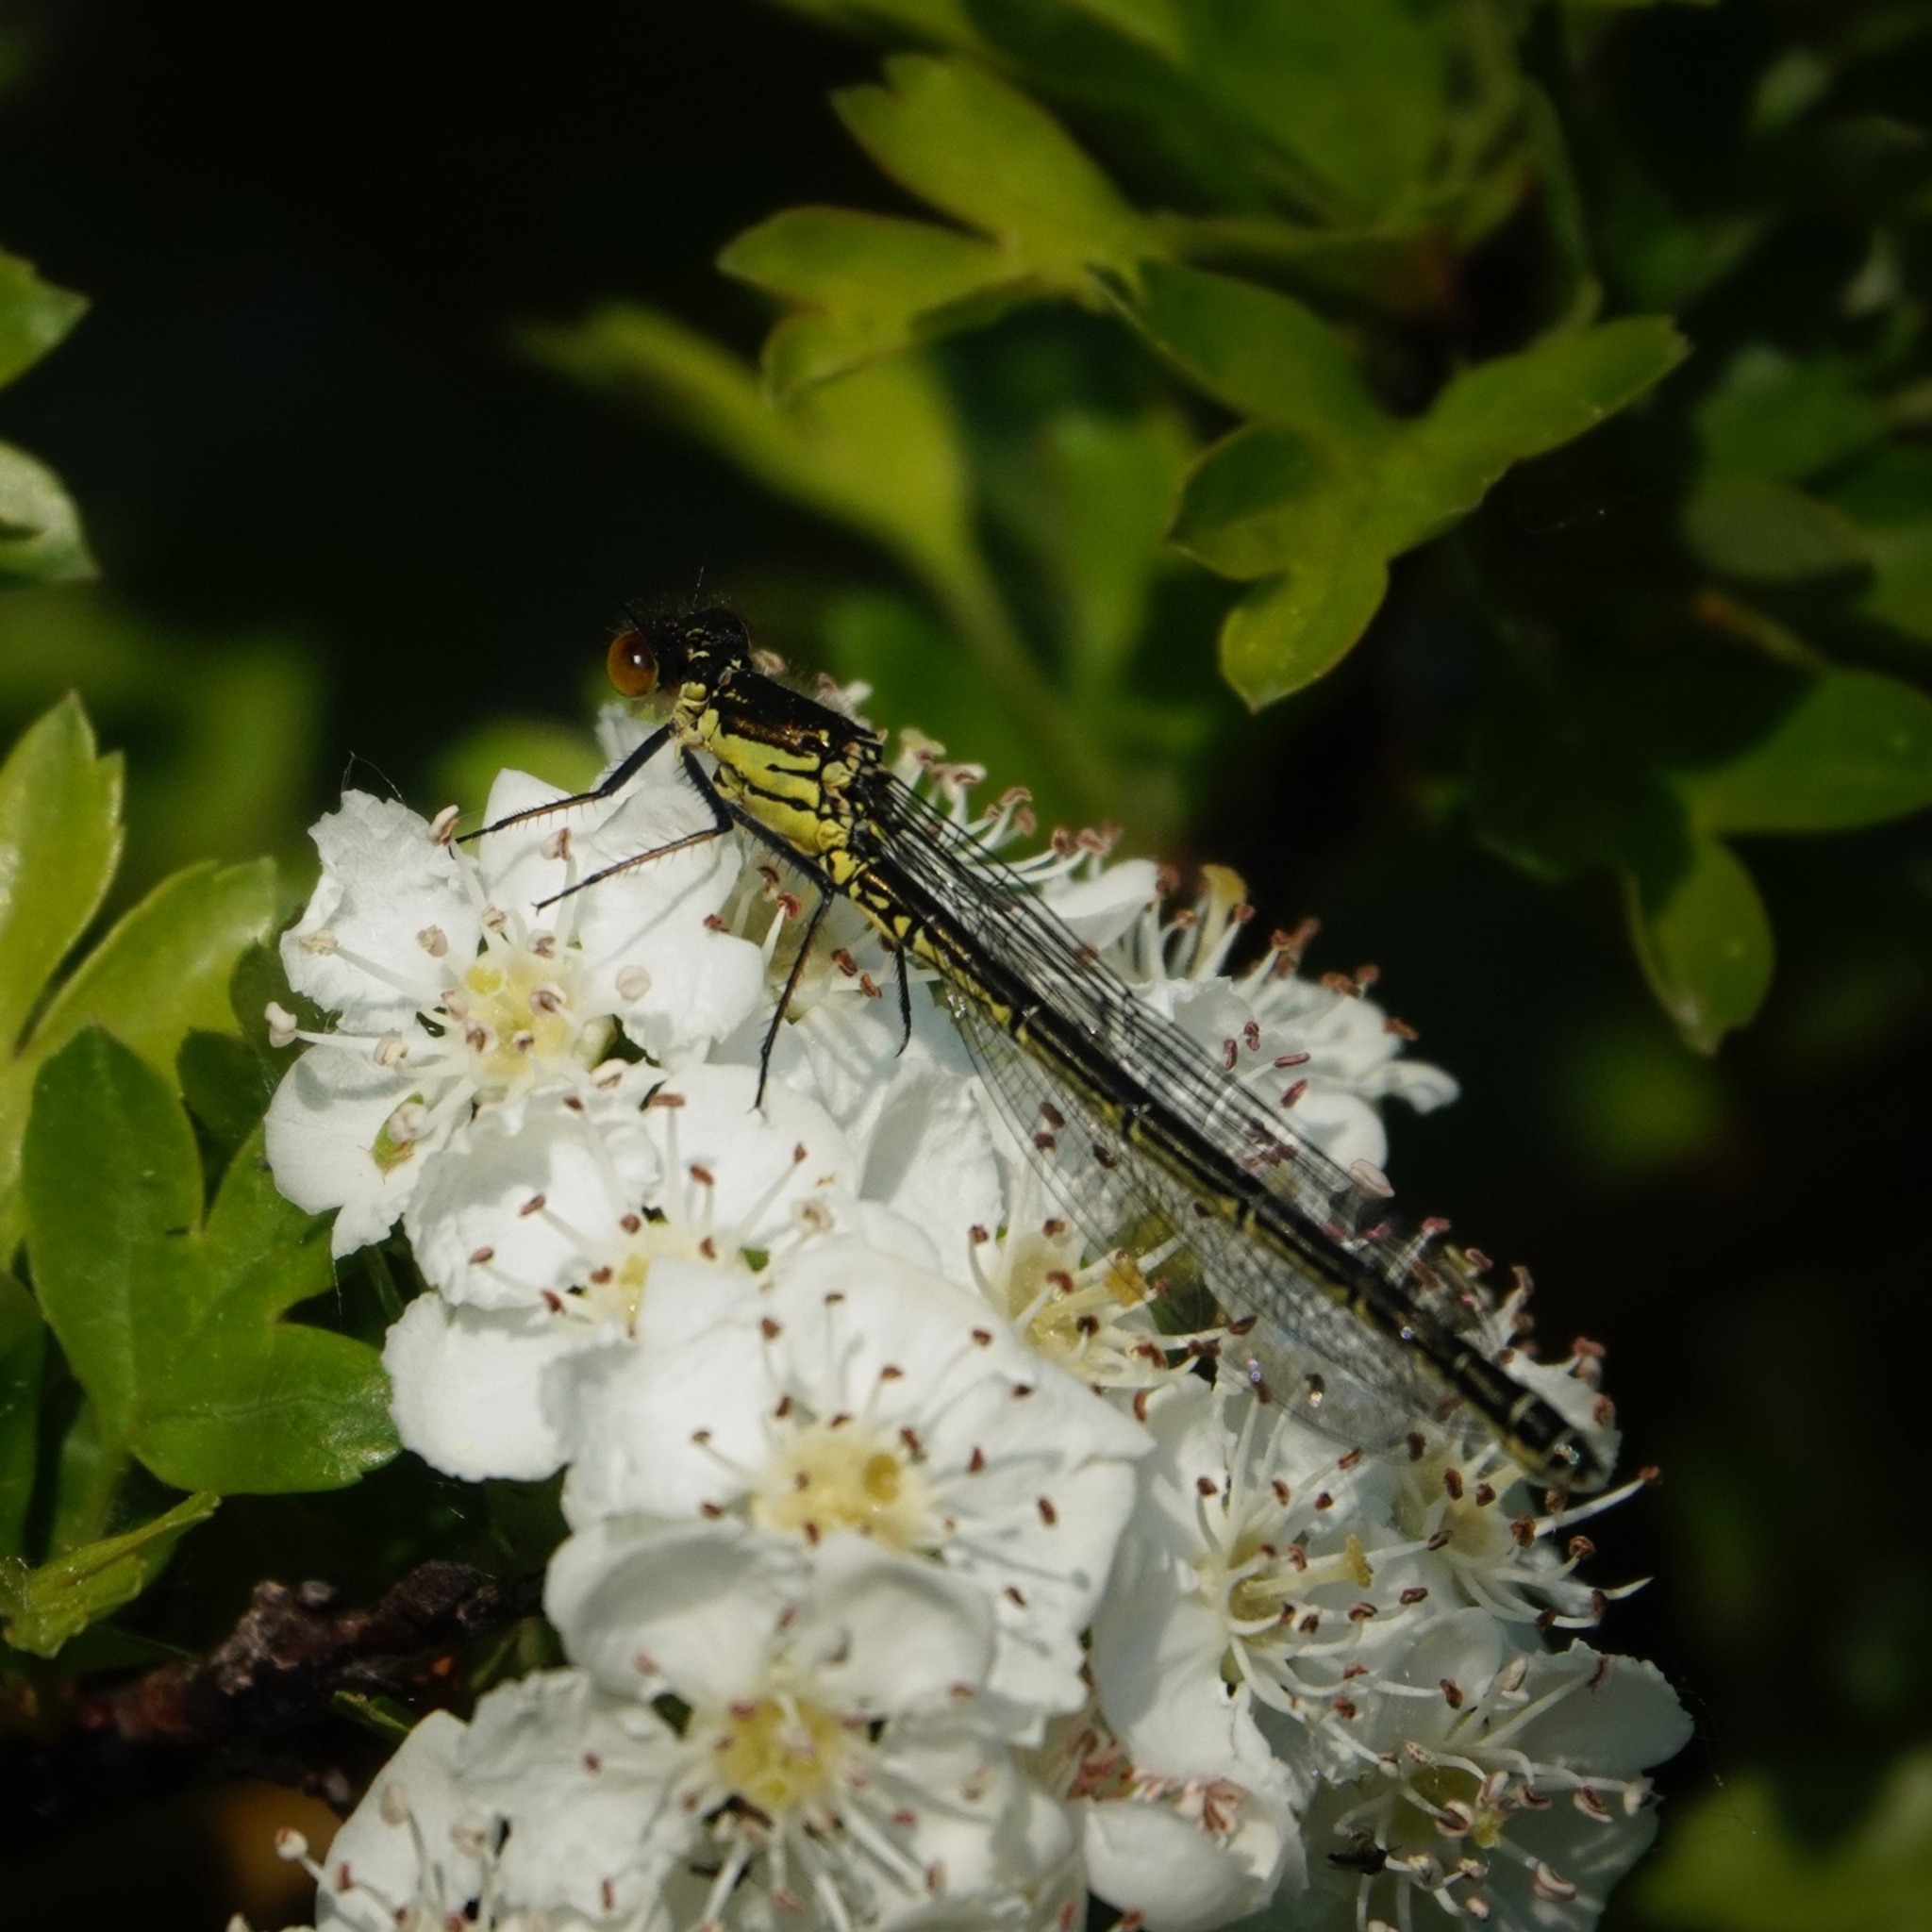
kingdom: Animalia
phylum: Arthropoda
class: Insecta
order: Odonata
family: Coenagrionidae
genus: Erythromma
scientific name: Erythromma najas
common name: Red-eyed damselfly
